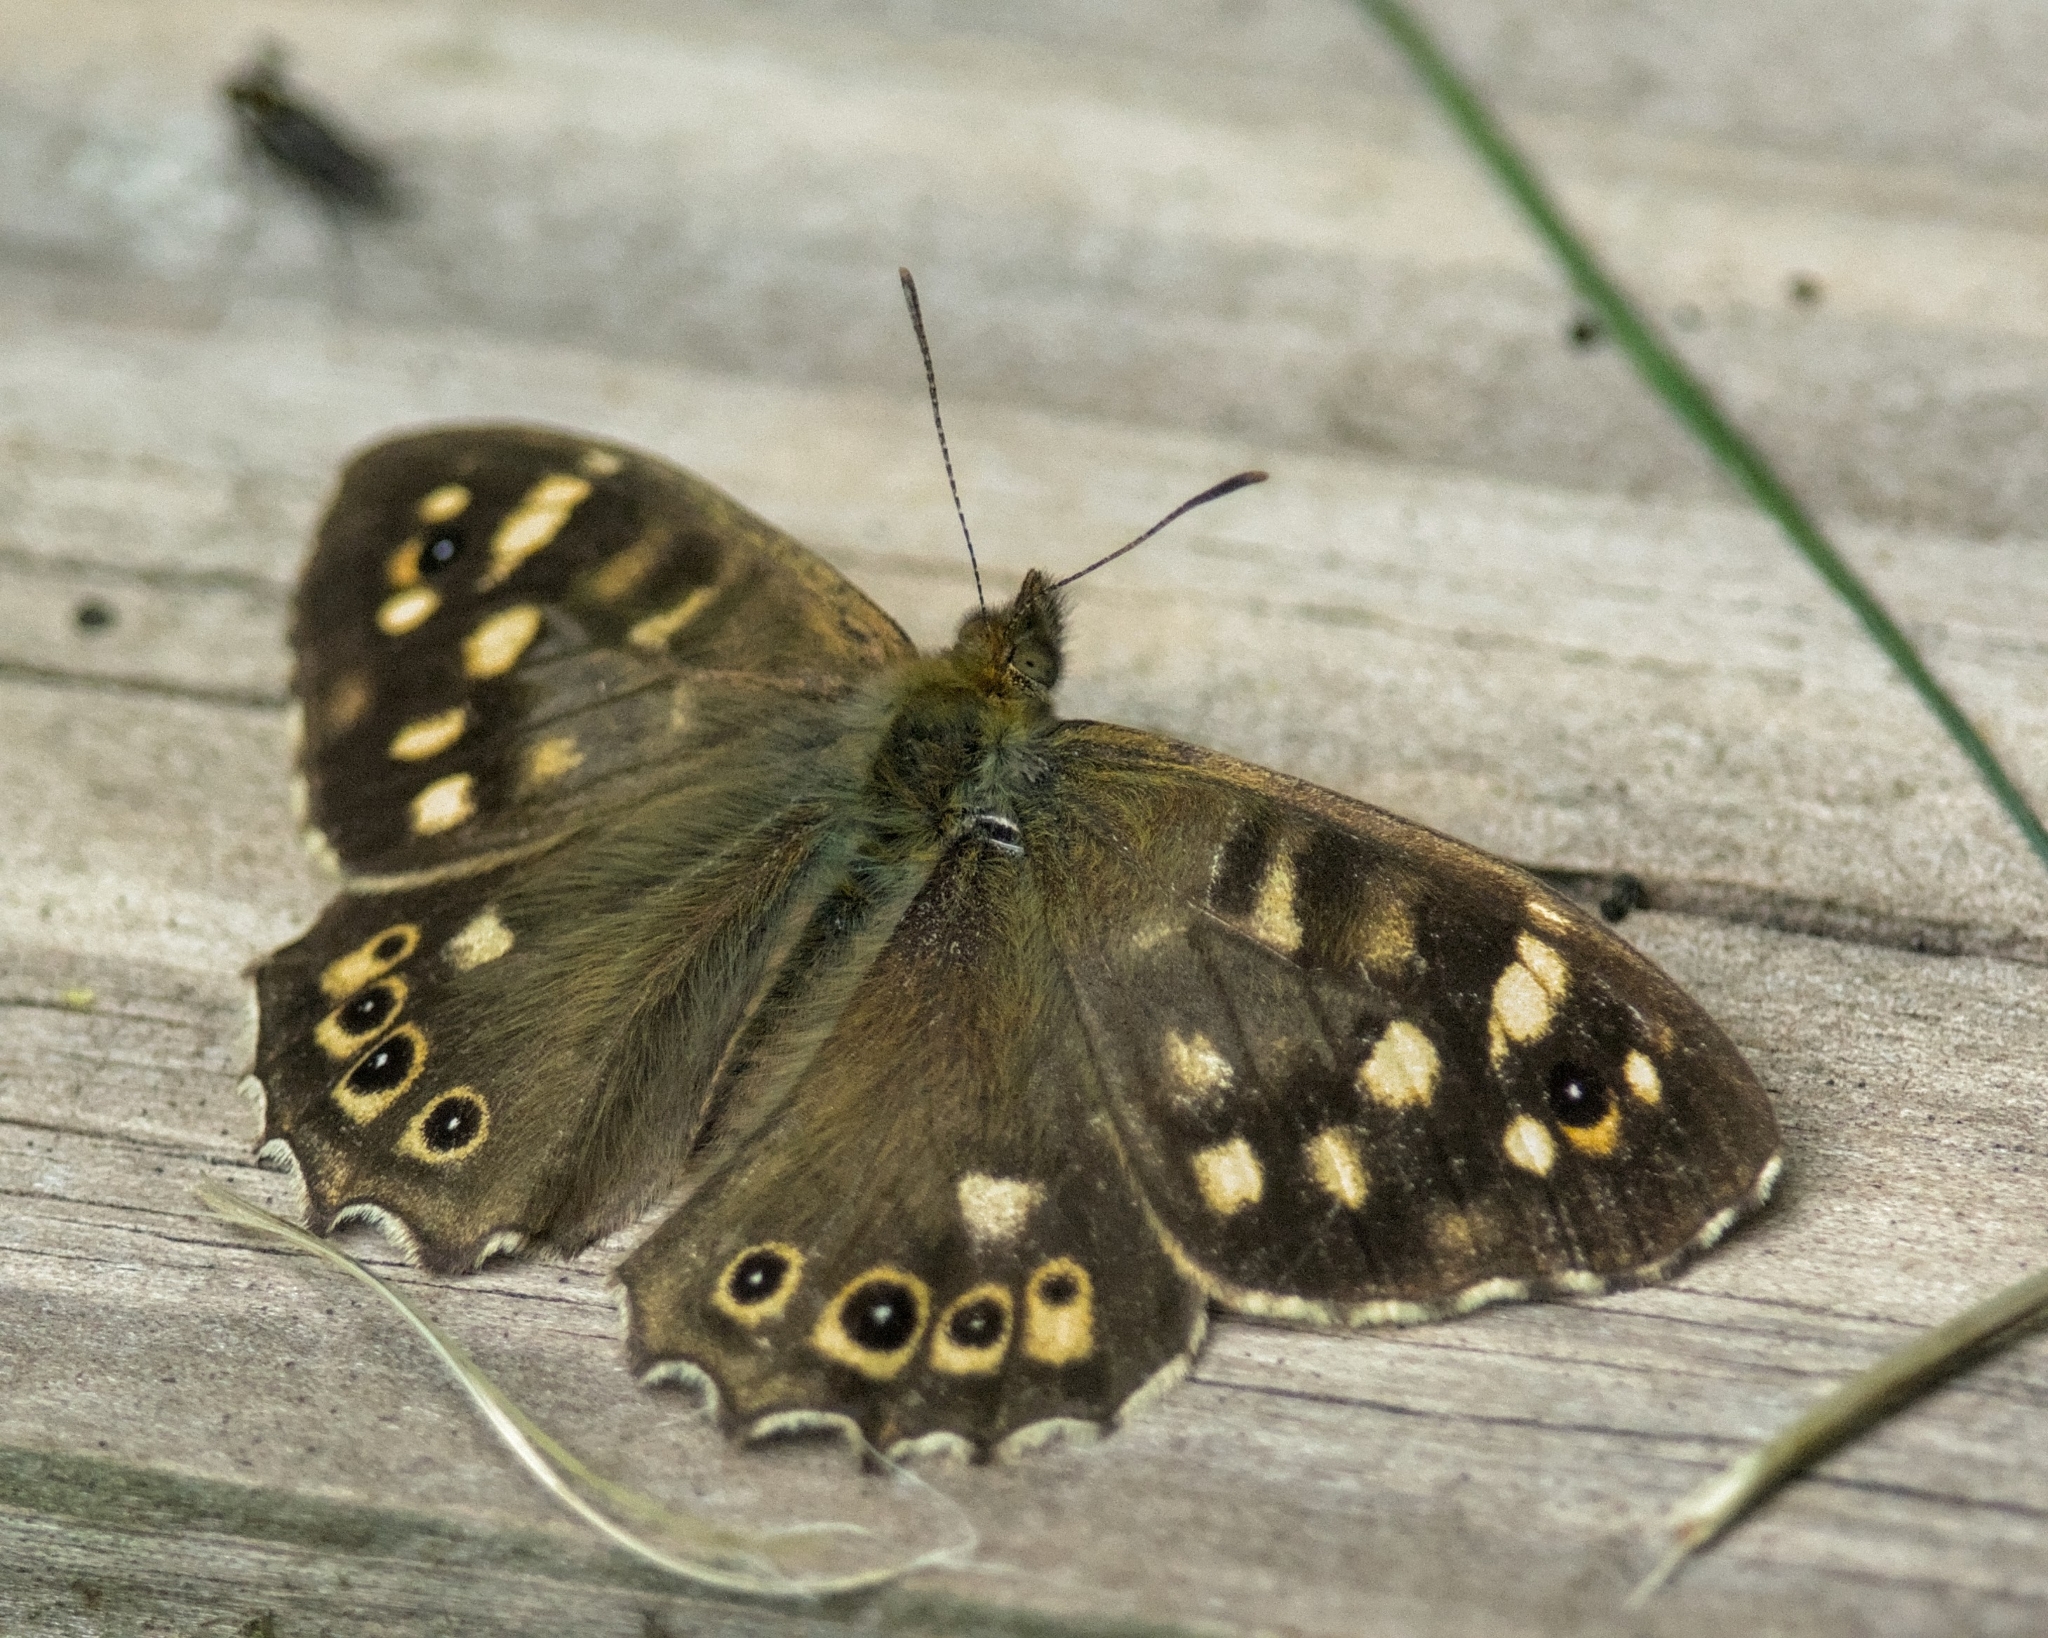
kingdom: Animalia
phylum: Arthropoda
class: Insecta
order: Lepidoptera
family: Nymphalidae
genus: Pararge
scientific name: Pararge aegeria
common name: Speckled wood
